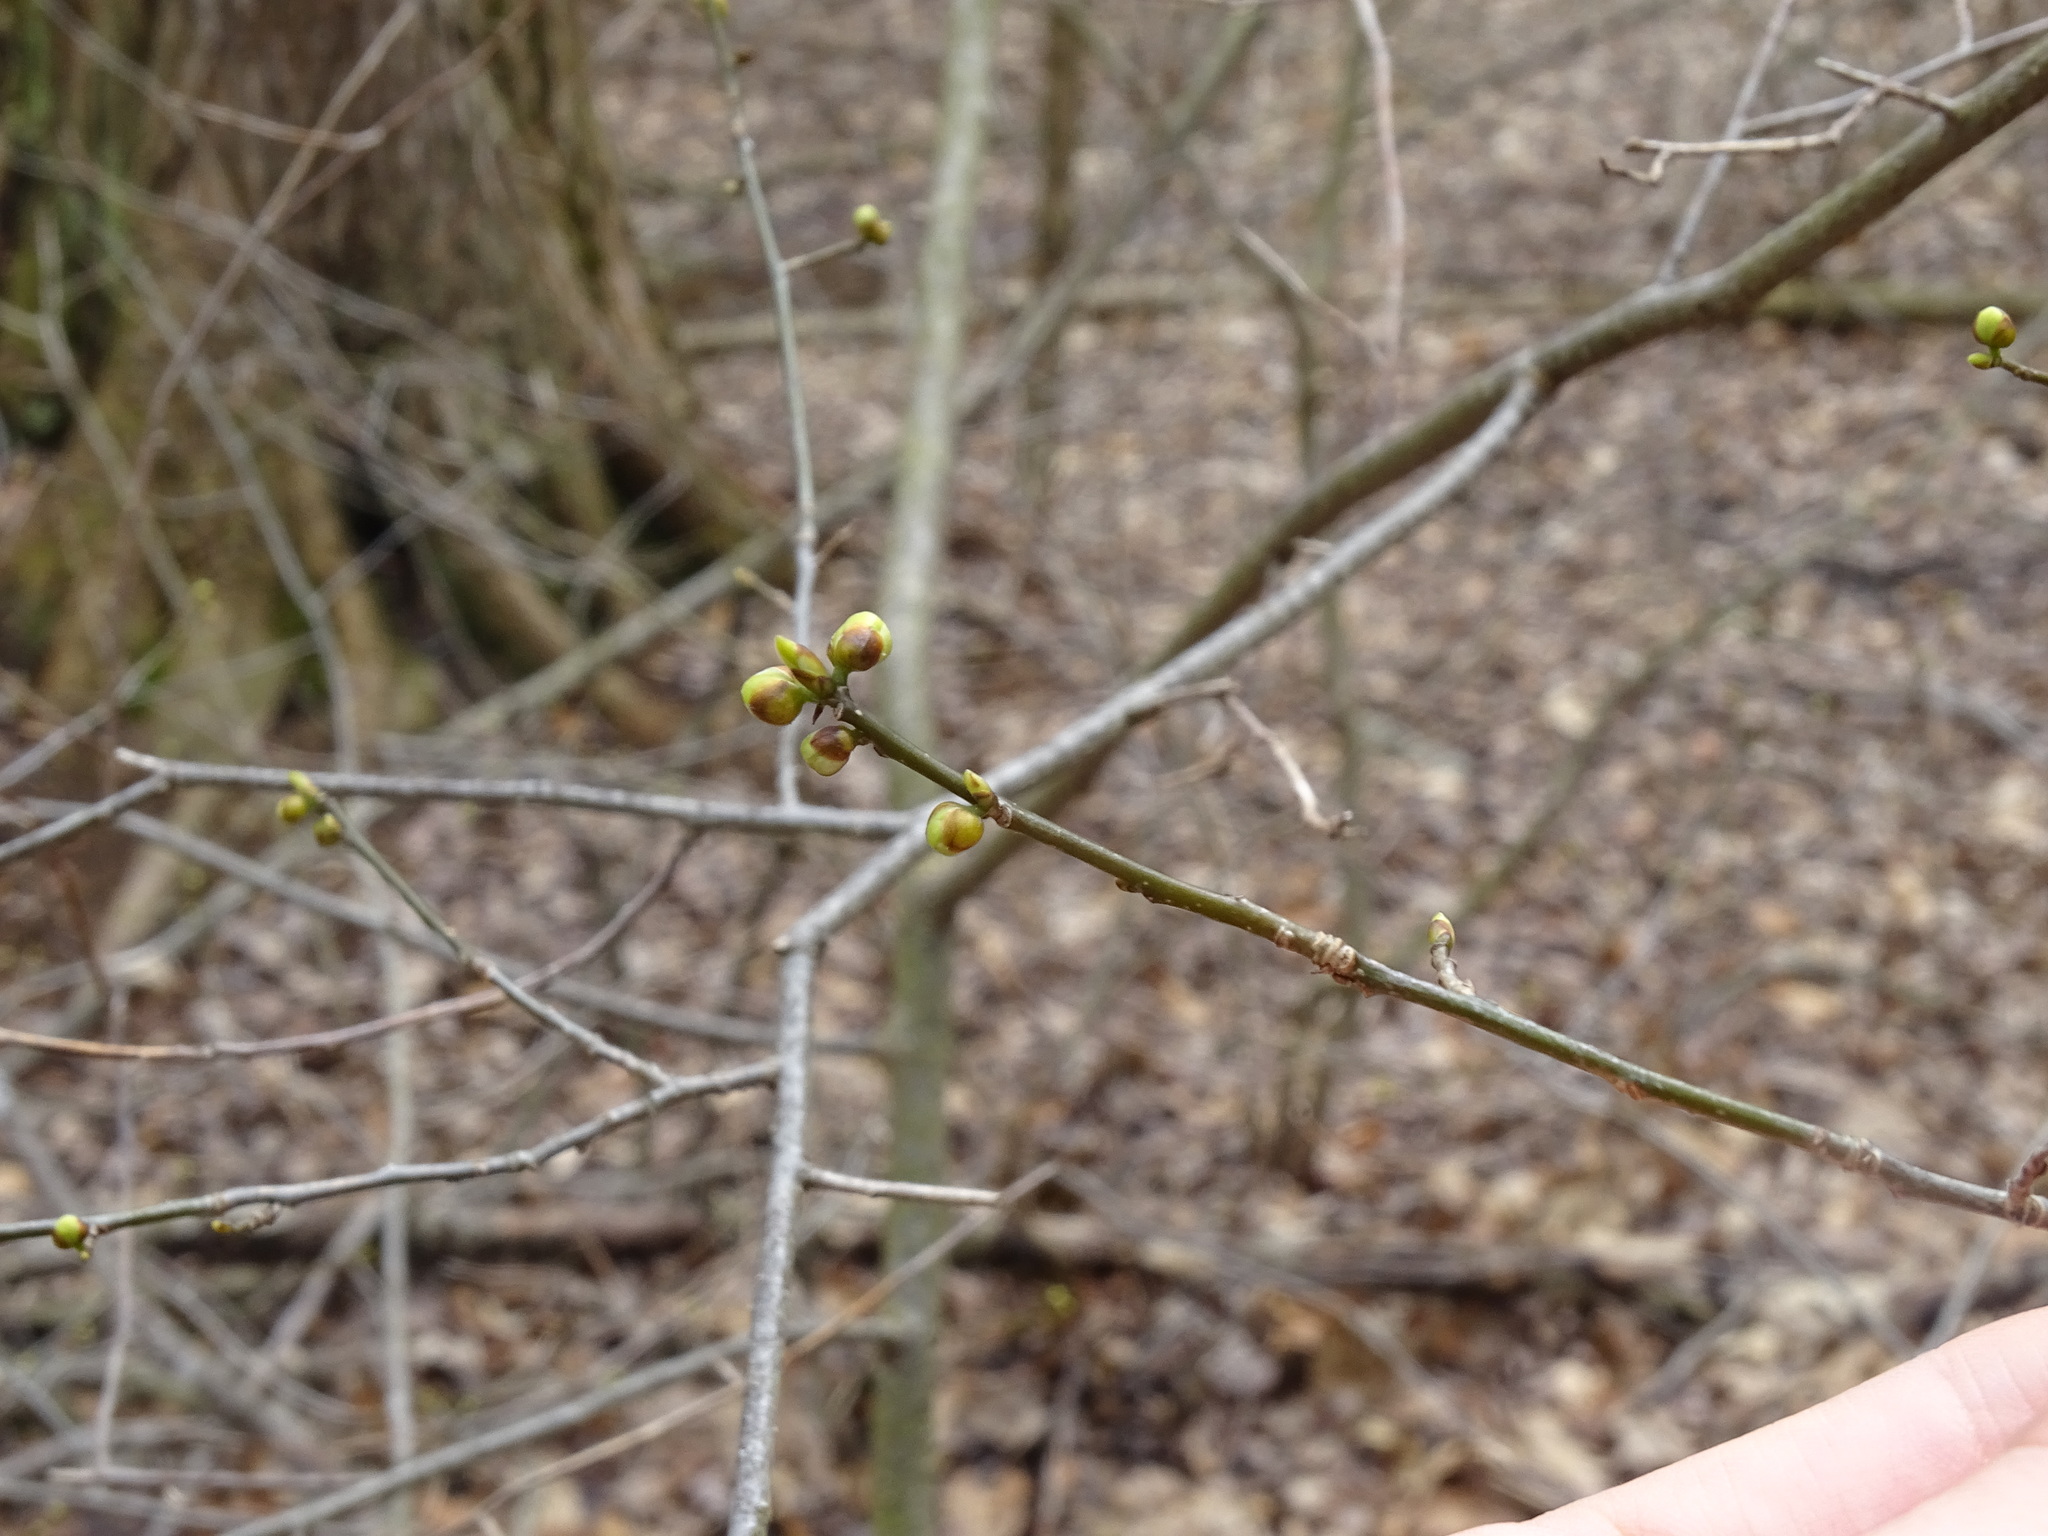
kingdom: Plantae
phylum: Tracheophyta
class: Magnoliopsida
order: Laurales
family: Lauraceae
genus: Lindera
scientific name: Lindera benzoin
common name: Spicebush
